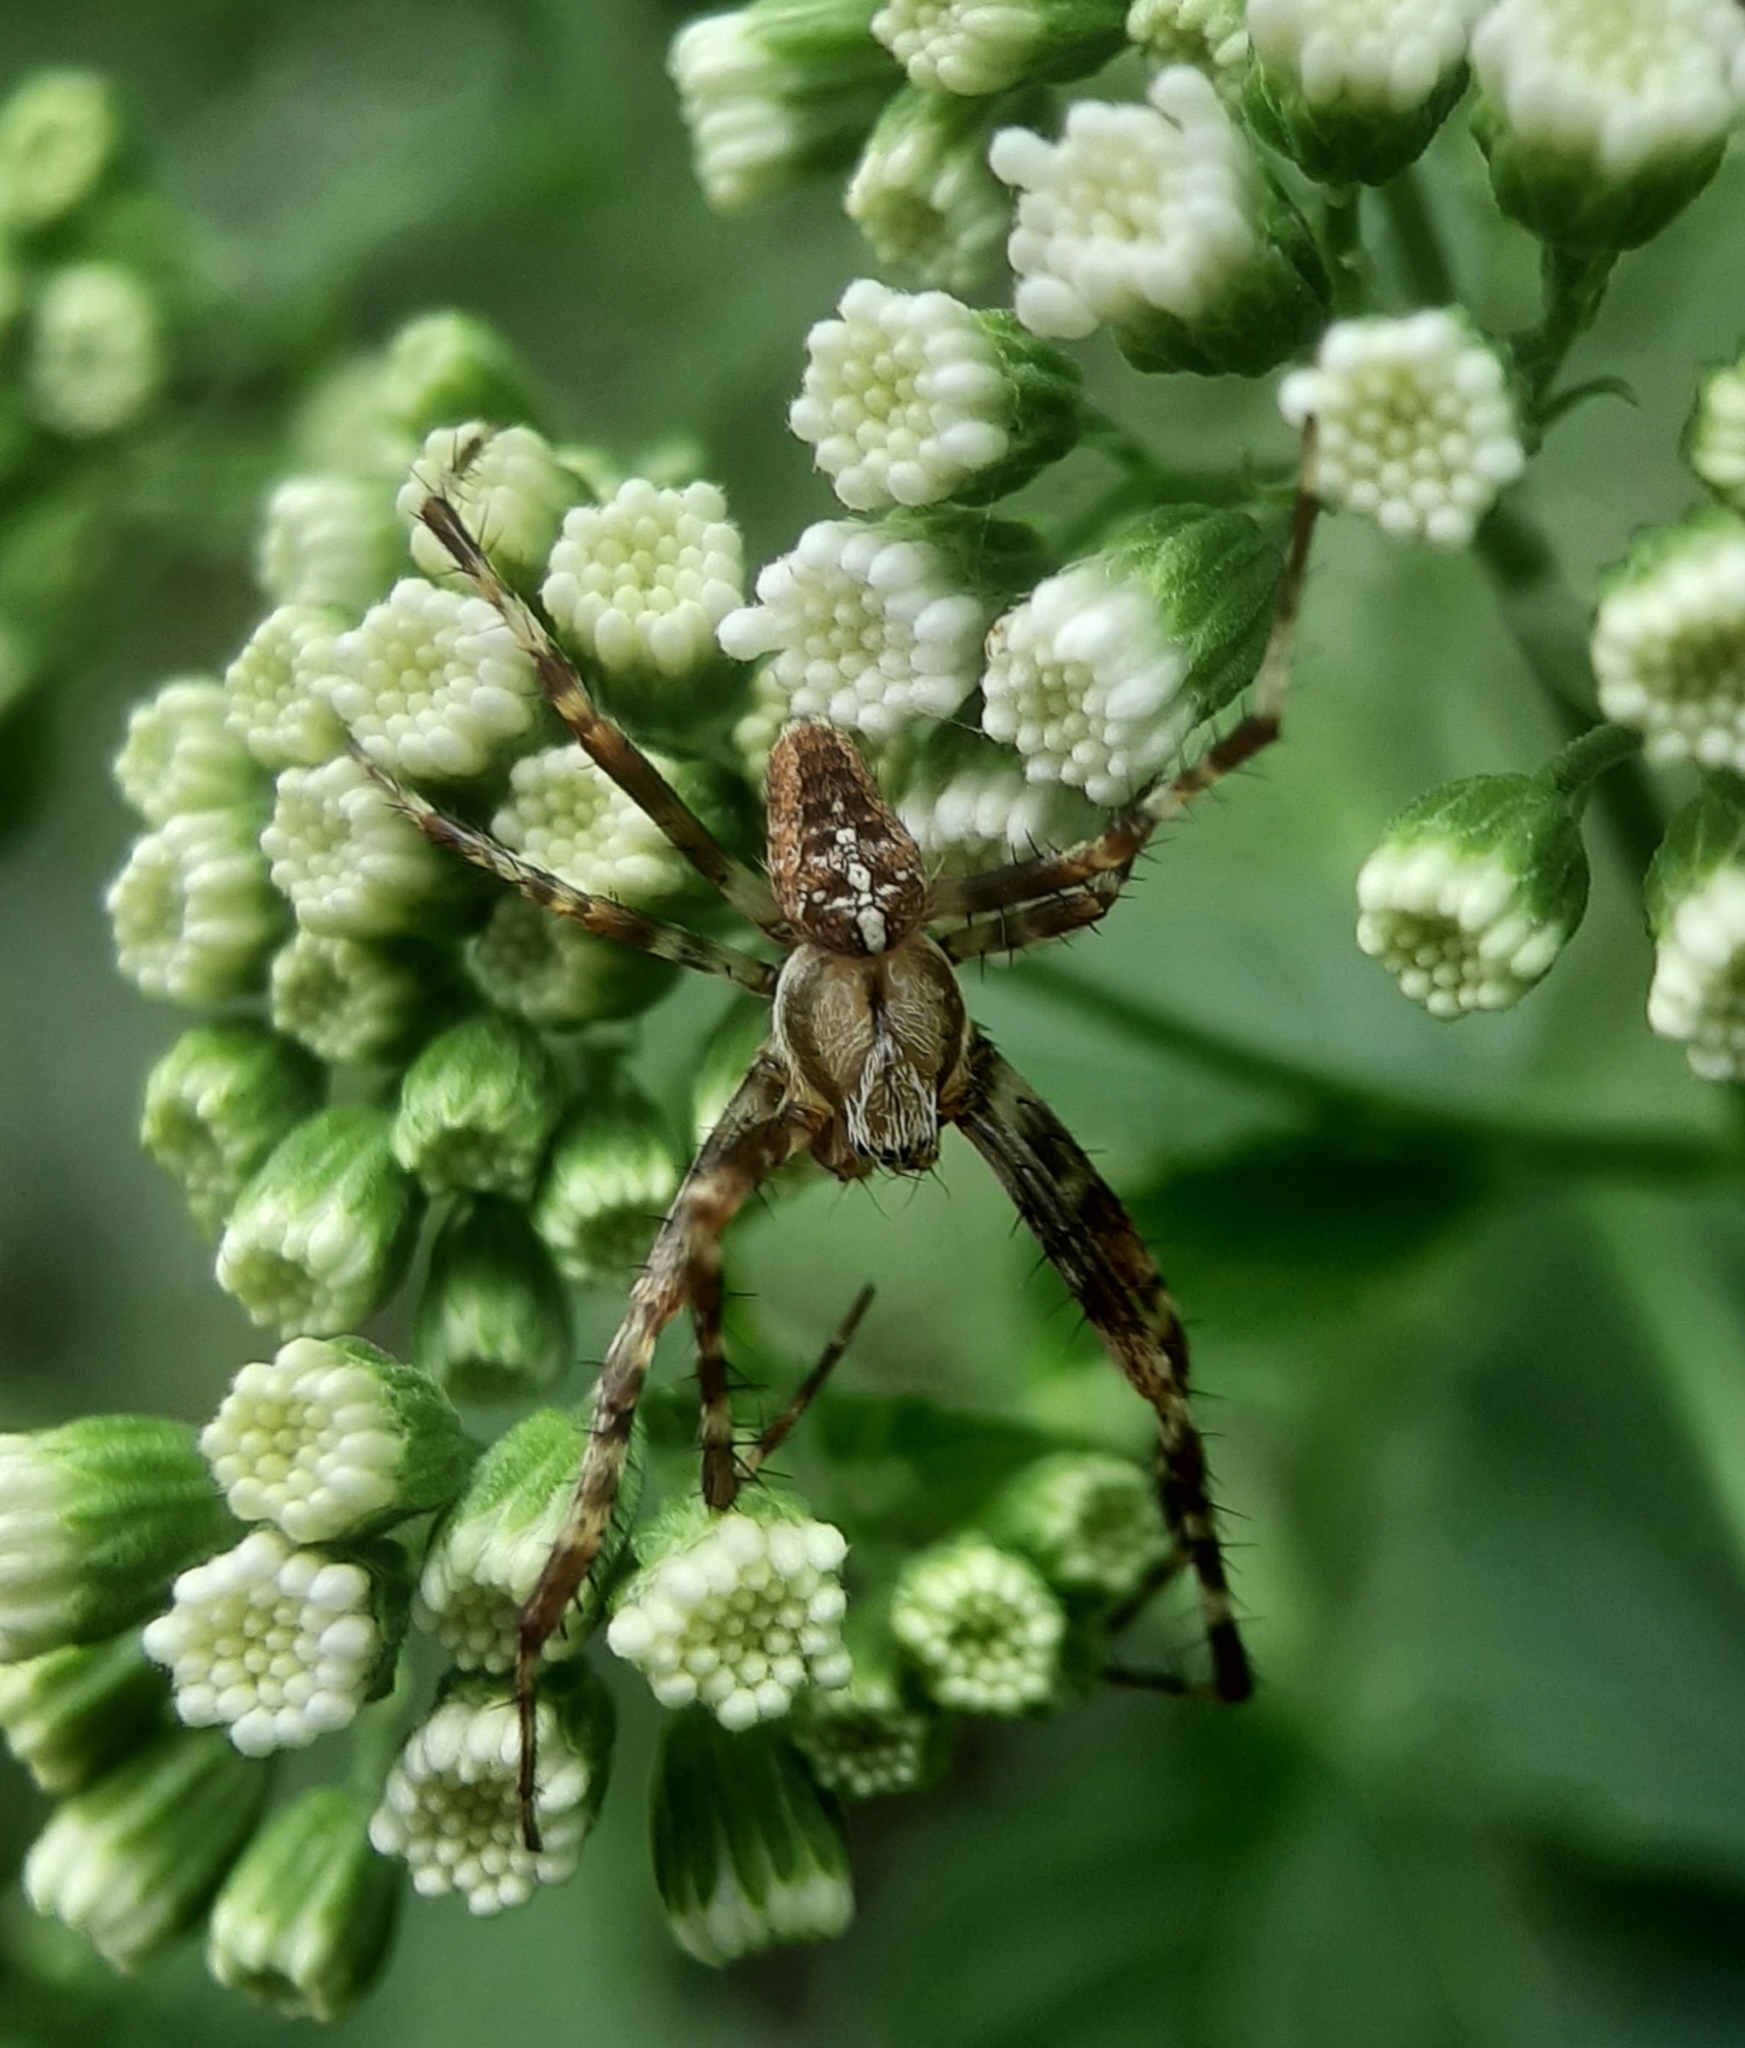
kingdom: Animalia
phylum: Arthropoda
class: Arachnida
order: Araneae
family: Araneidae
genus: Araneus
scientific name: Araneus diadematus
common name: Cross orbweaver
